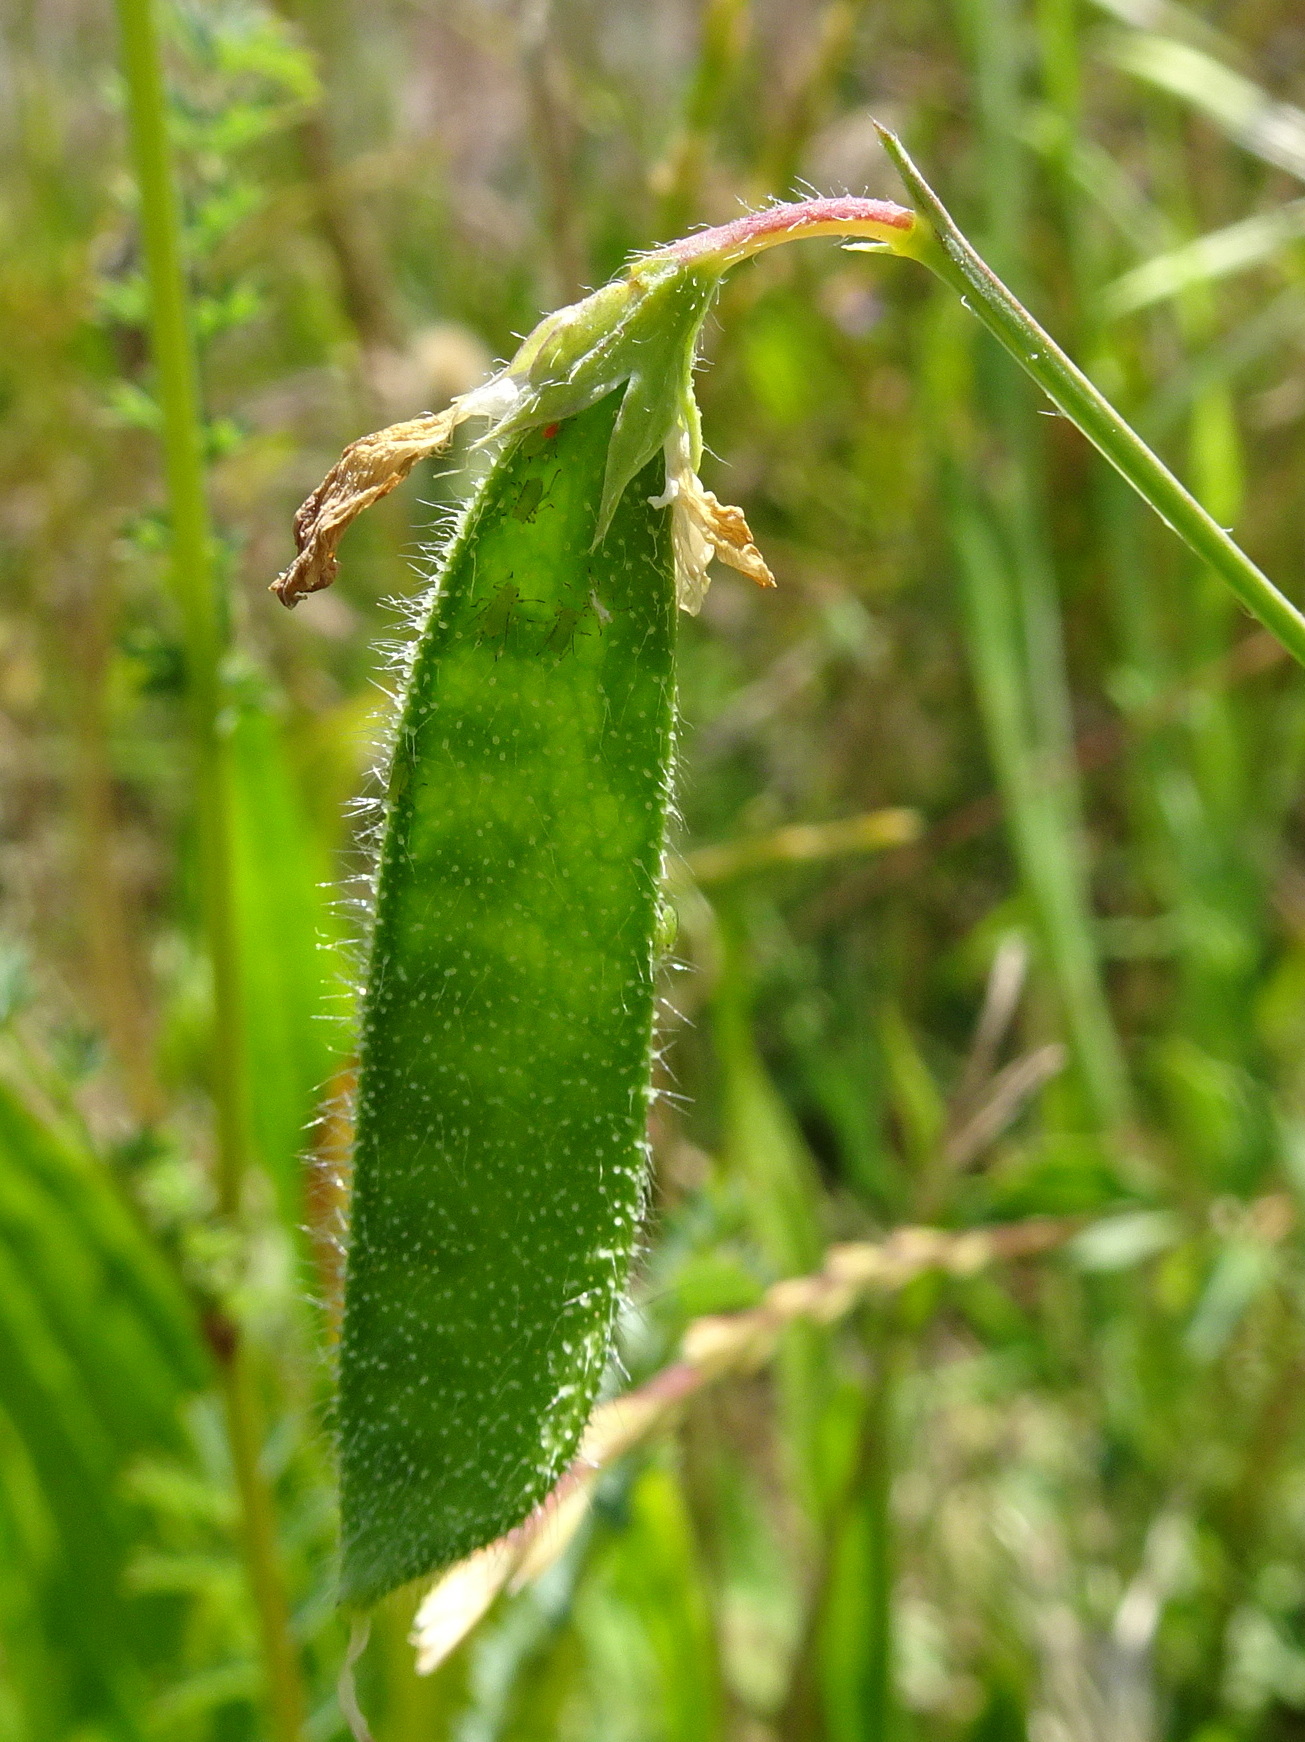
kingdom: Plantae
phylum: Tracheophyta
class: Magnoliopsida
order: Fabales
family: Fabaceae
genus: Lathyrus
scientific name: Lathyrus hirsutus
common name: Hairy vetchling
